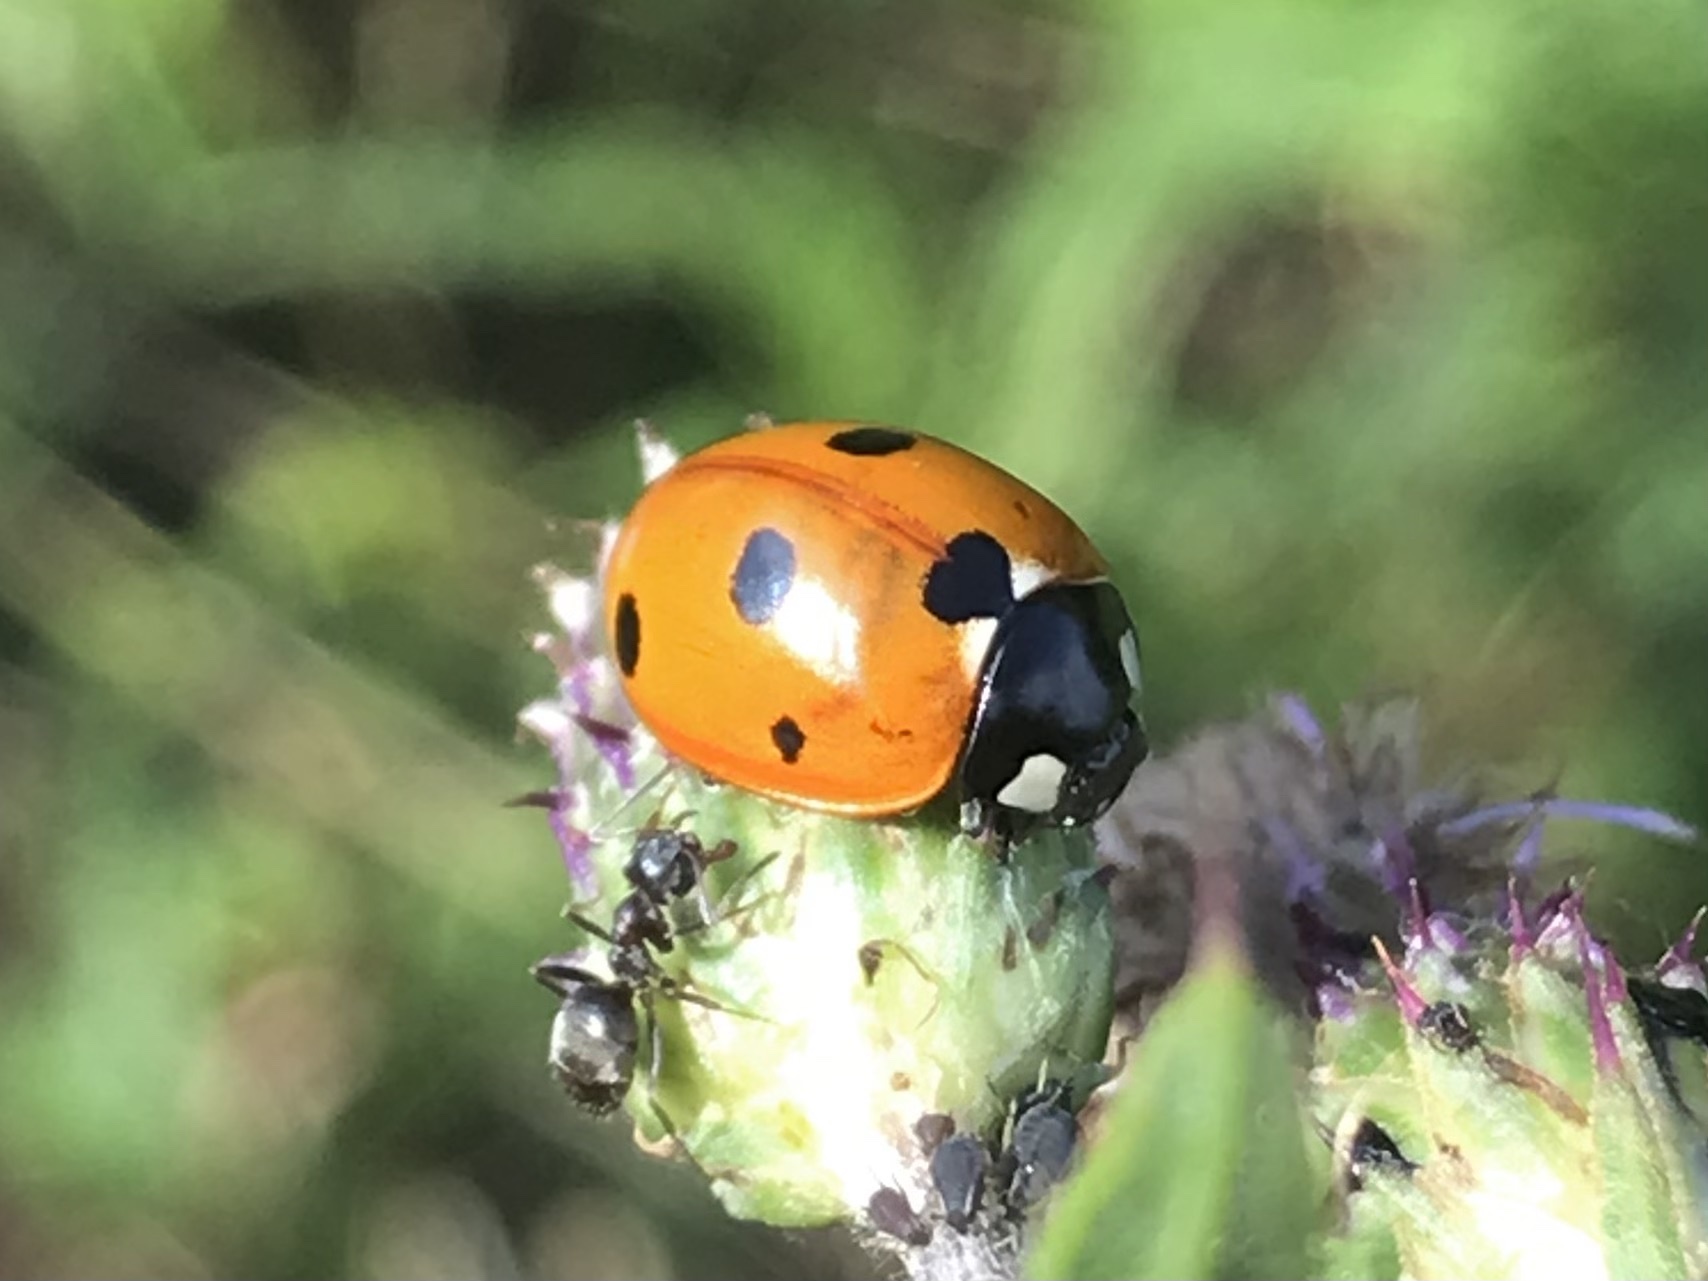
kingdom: Animalia
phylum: Arthropoda
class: Insecta
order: Coleoptera
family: Coccinellidae
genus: Coccinella
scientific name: Coccinella septempunctata
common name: Sevenspotted lady beetle
